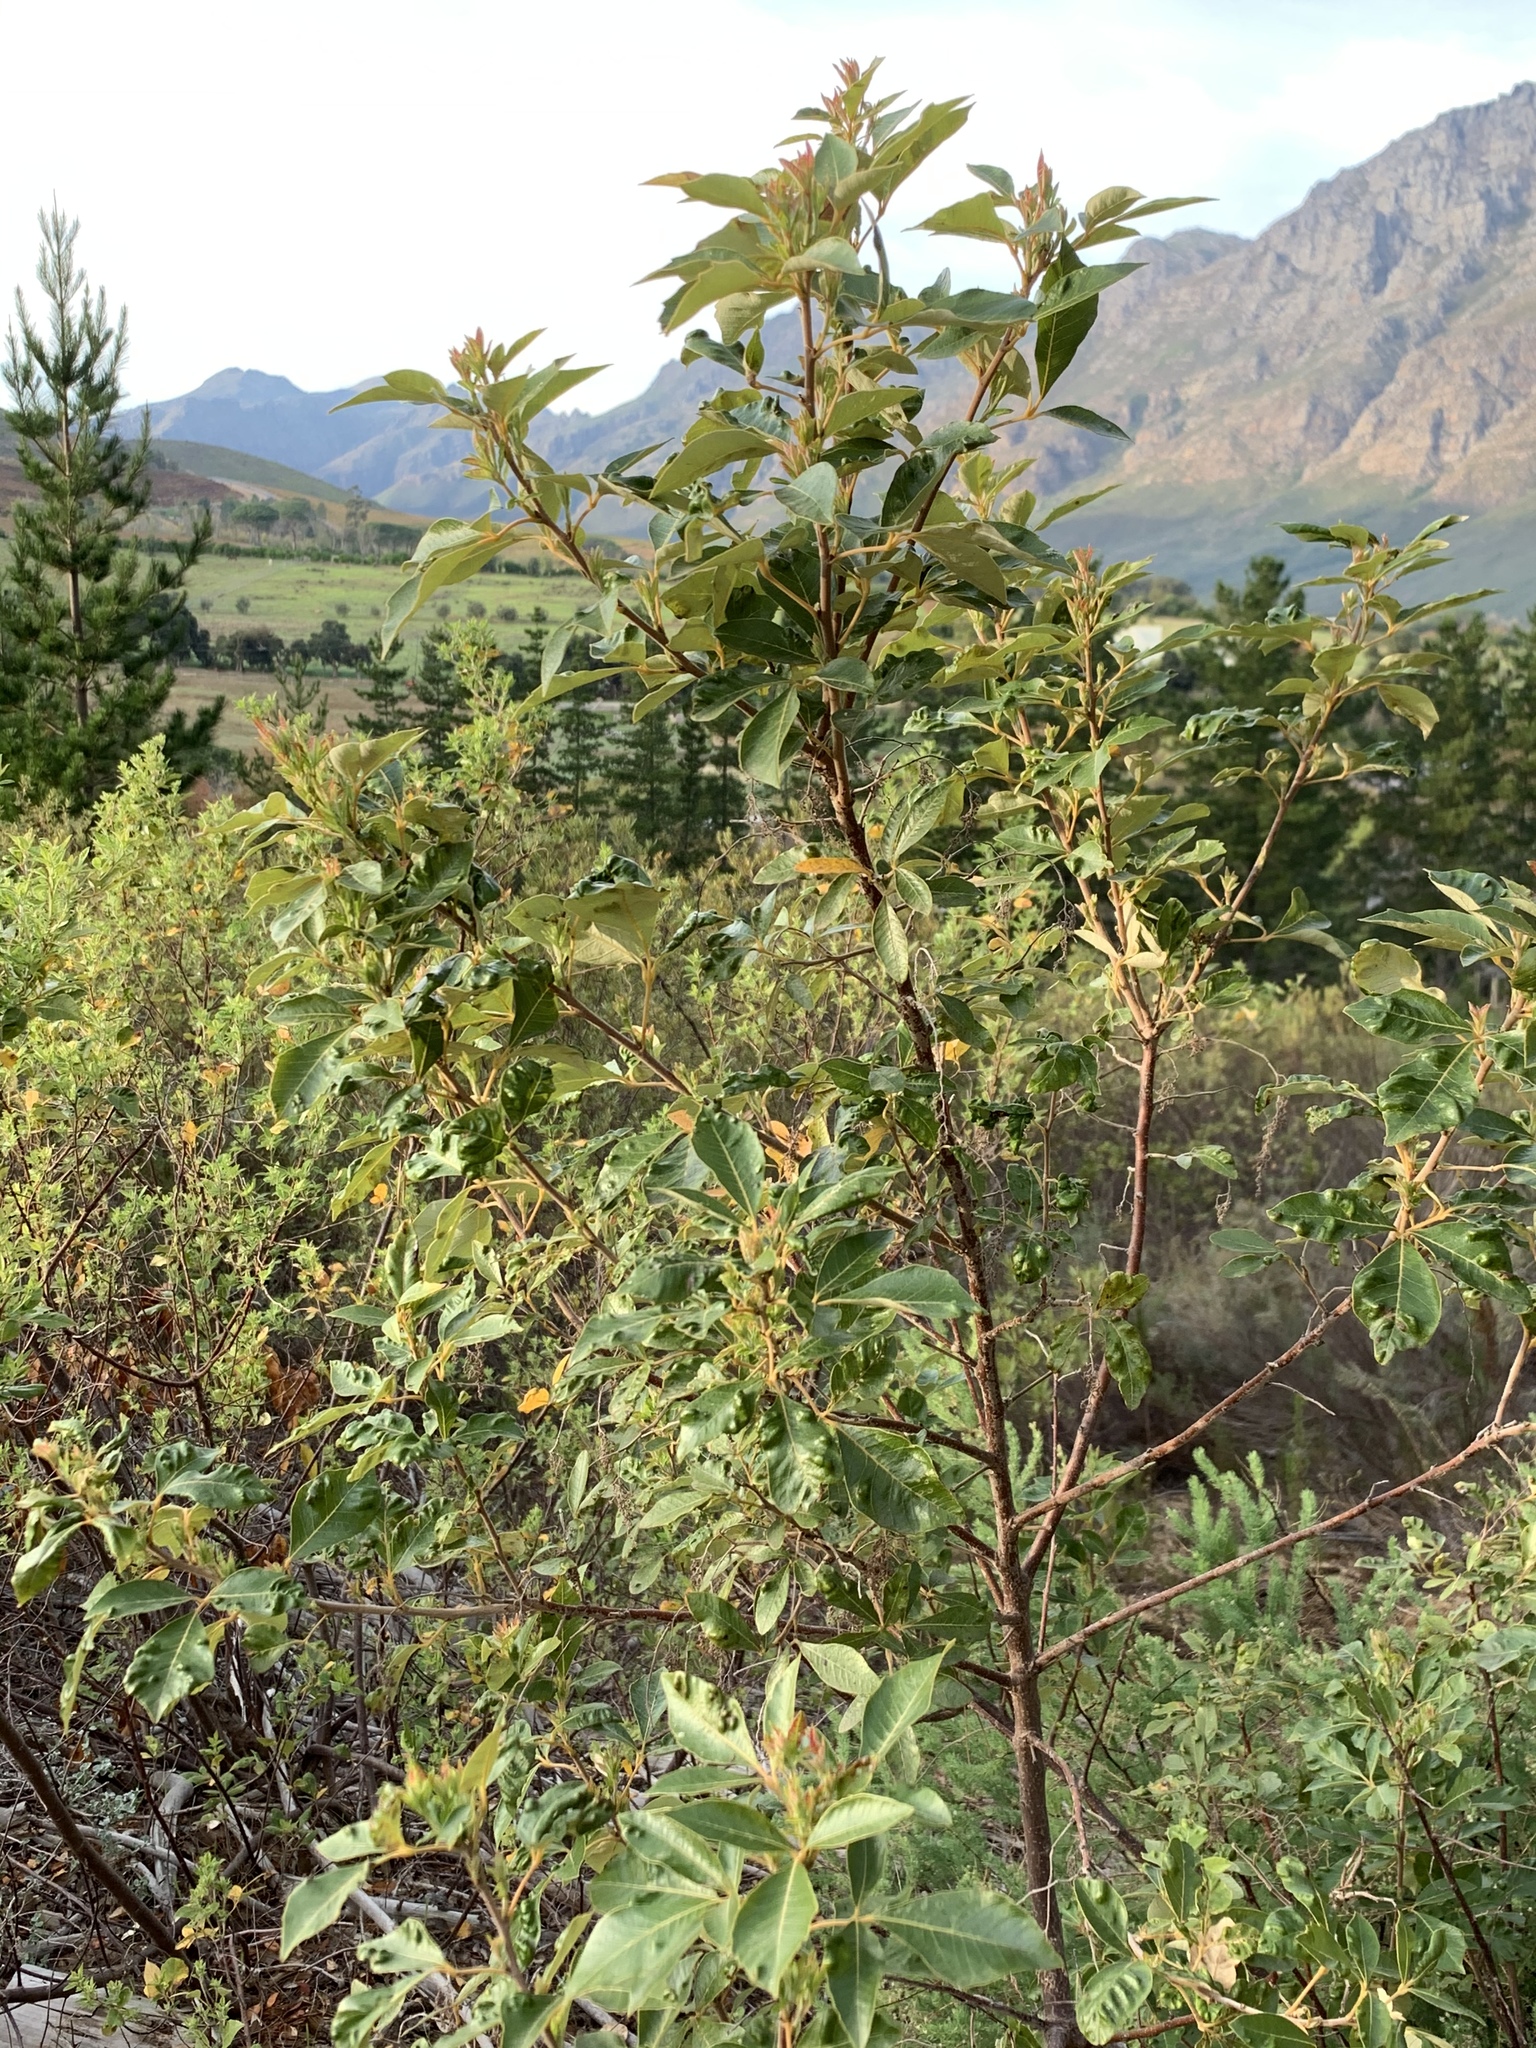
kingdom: Plantae
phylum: Tracheophyta
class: Magnoliopsida
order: Sapindales
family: Anacardiaceae
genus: Searsia
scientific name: Searsia tomentosa
